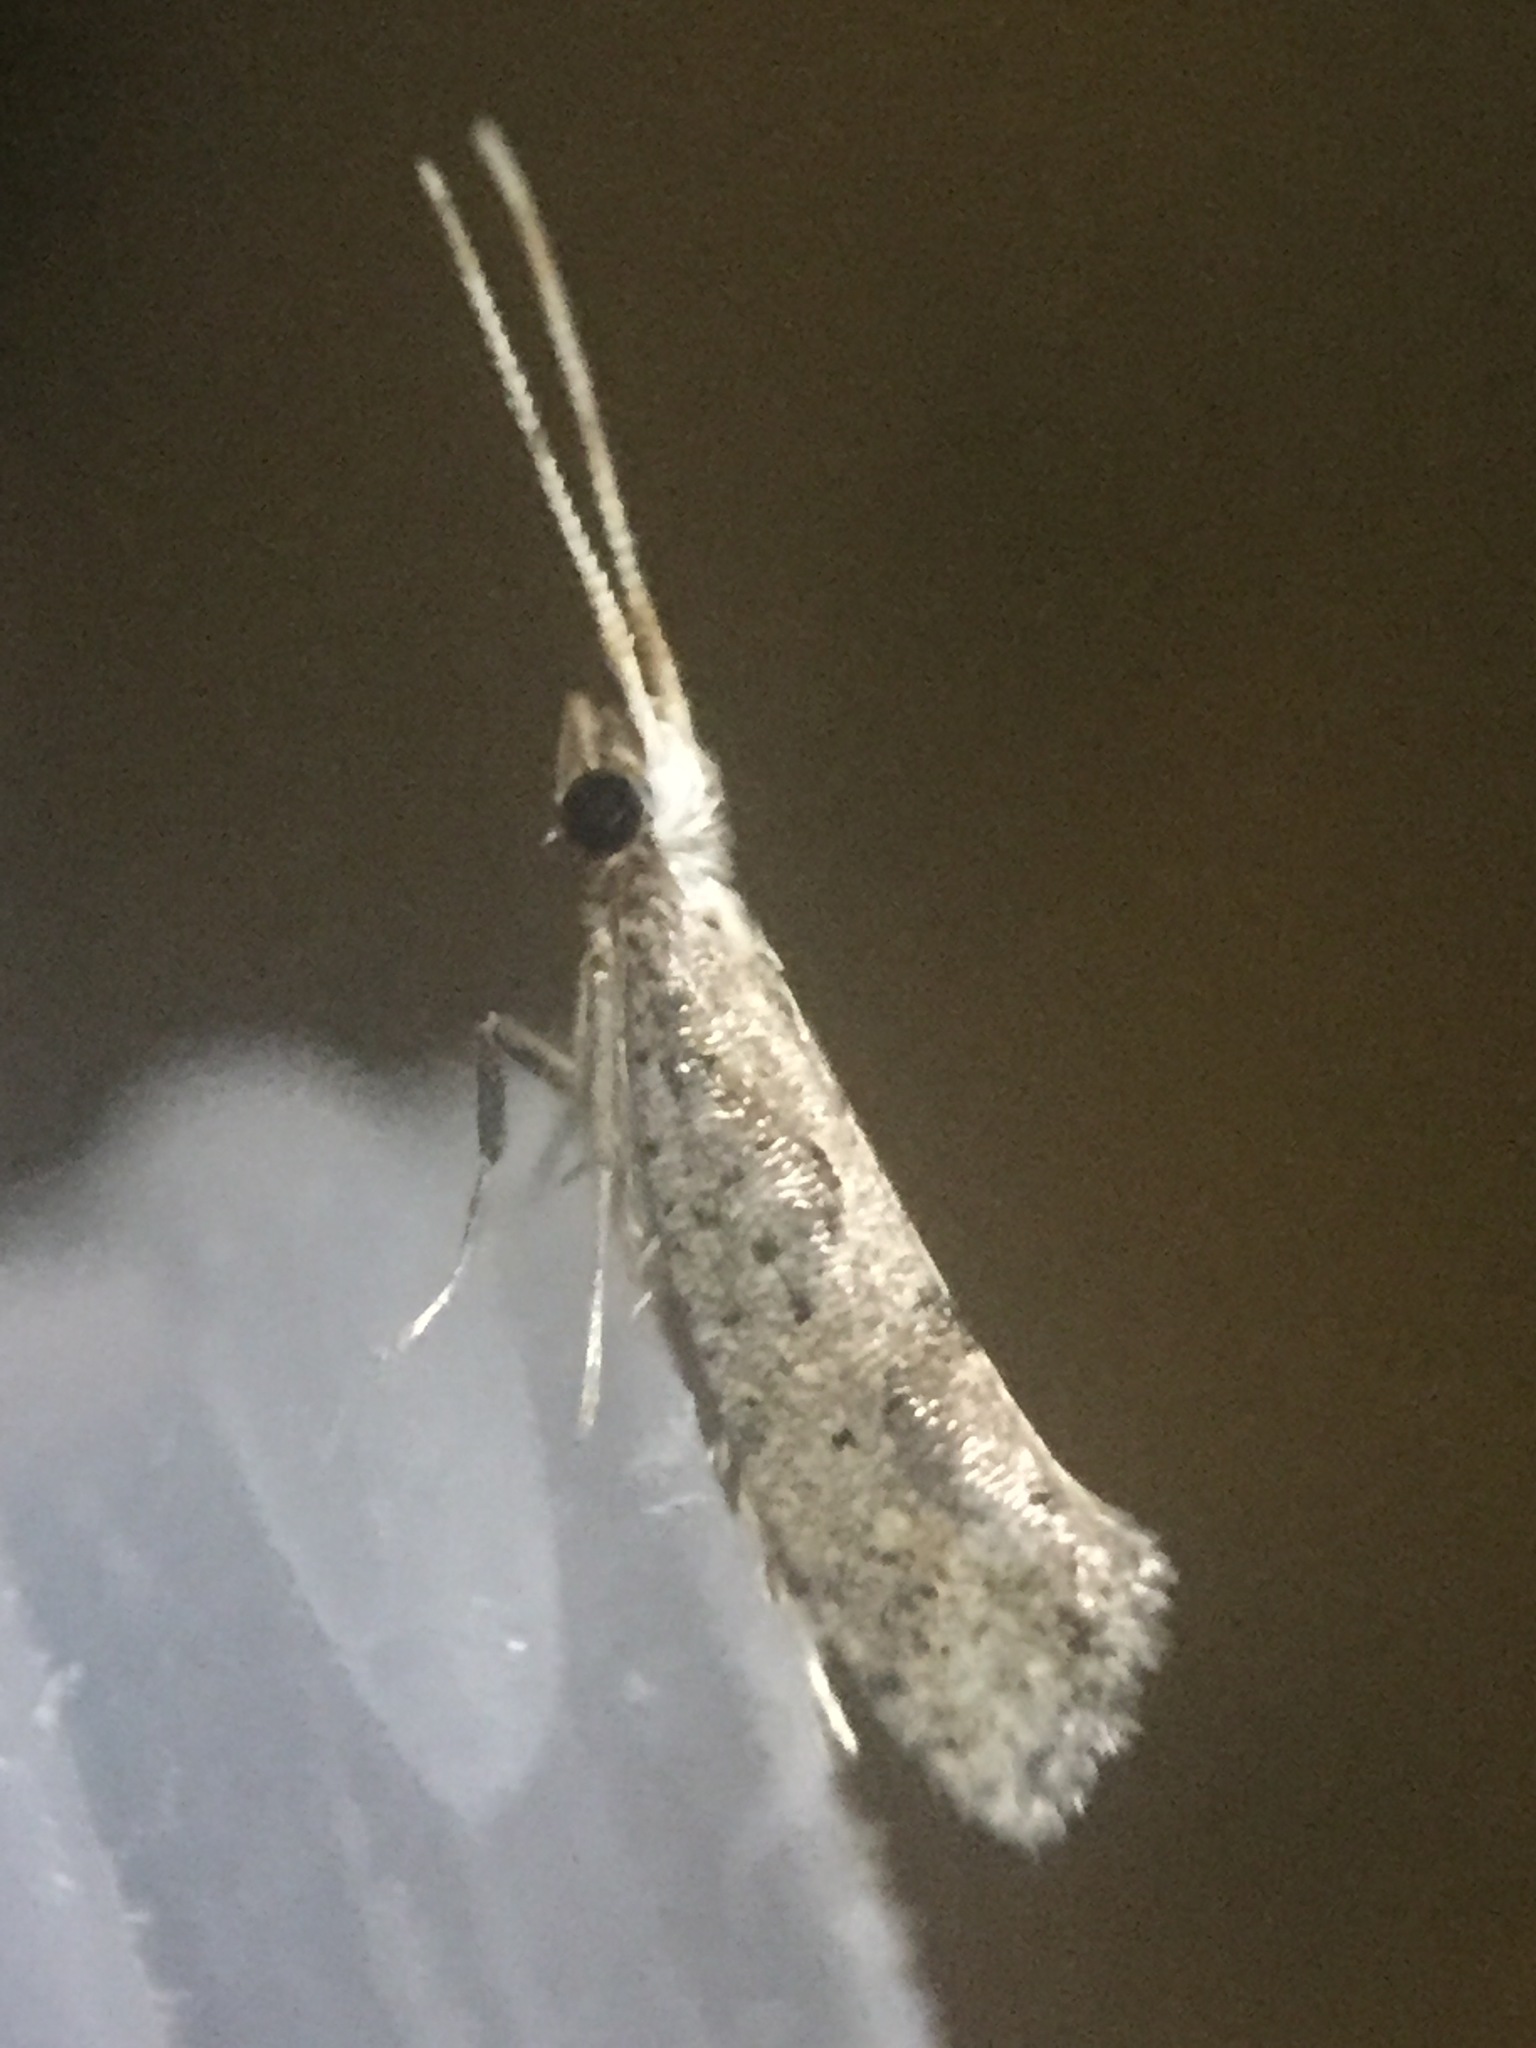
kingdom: Animalia
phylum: Arthropoda
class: Insecta
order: Lepidoptera
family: Plutellidae
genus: Leuroperna
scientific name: Leuroperna sera
